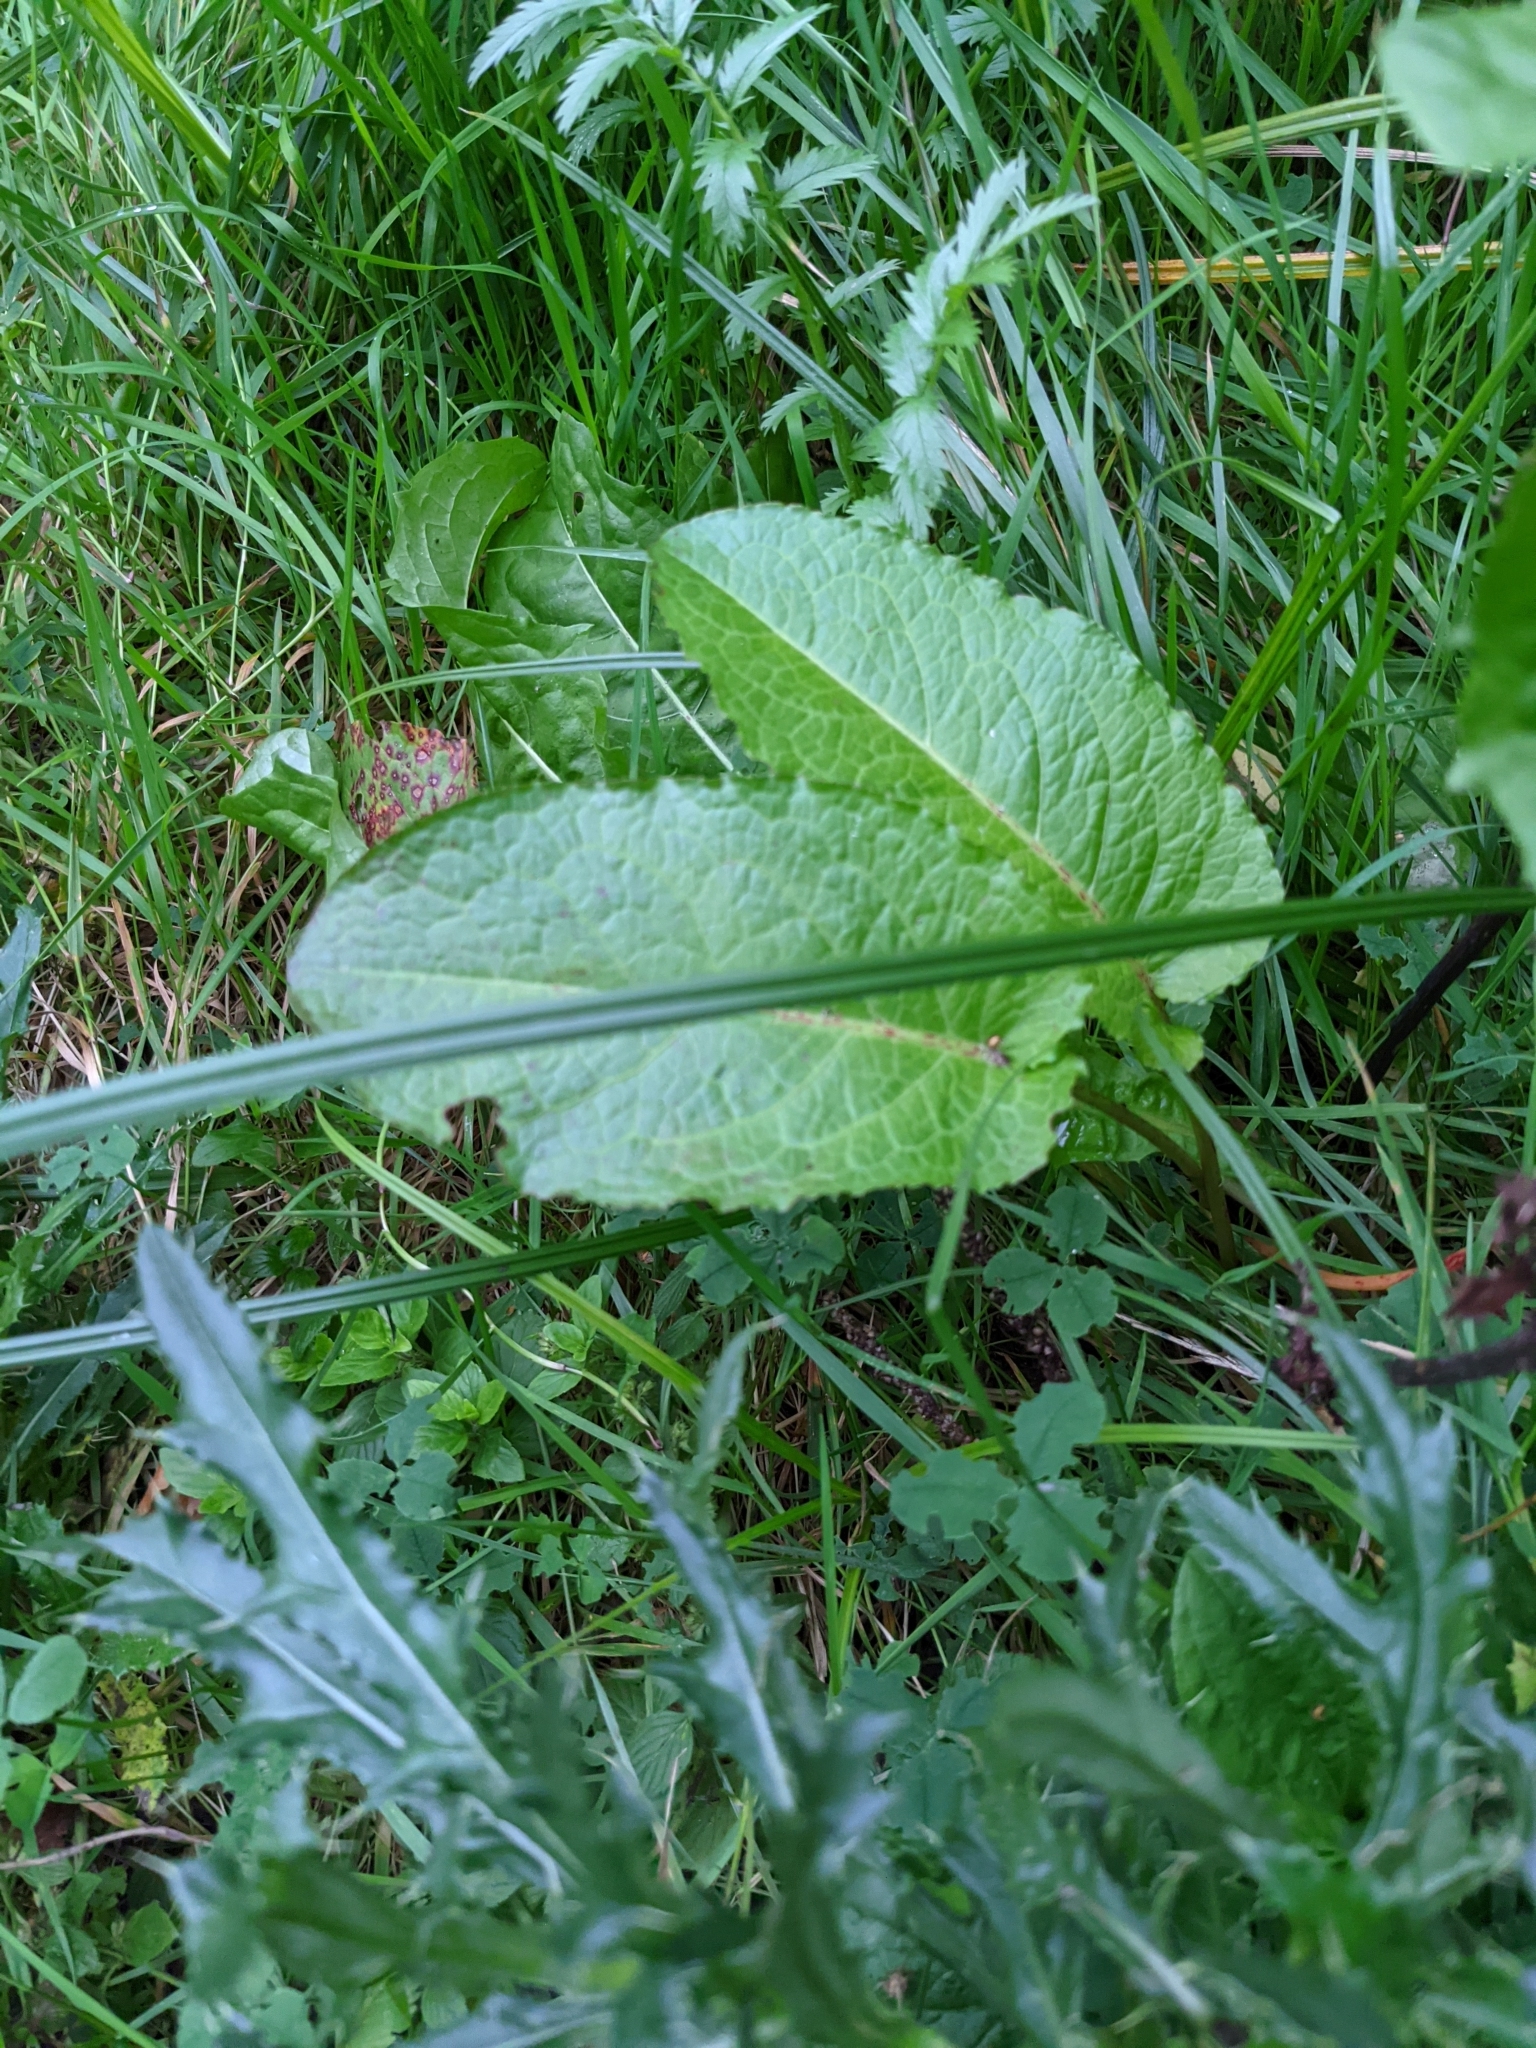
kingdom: Plantae
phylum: Tracheophyta
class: Magnoliopsida
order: Caryophyllales
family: Polygonaceae
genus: Rumex
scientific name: Rumex obtusifolius
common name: Bitter dock
